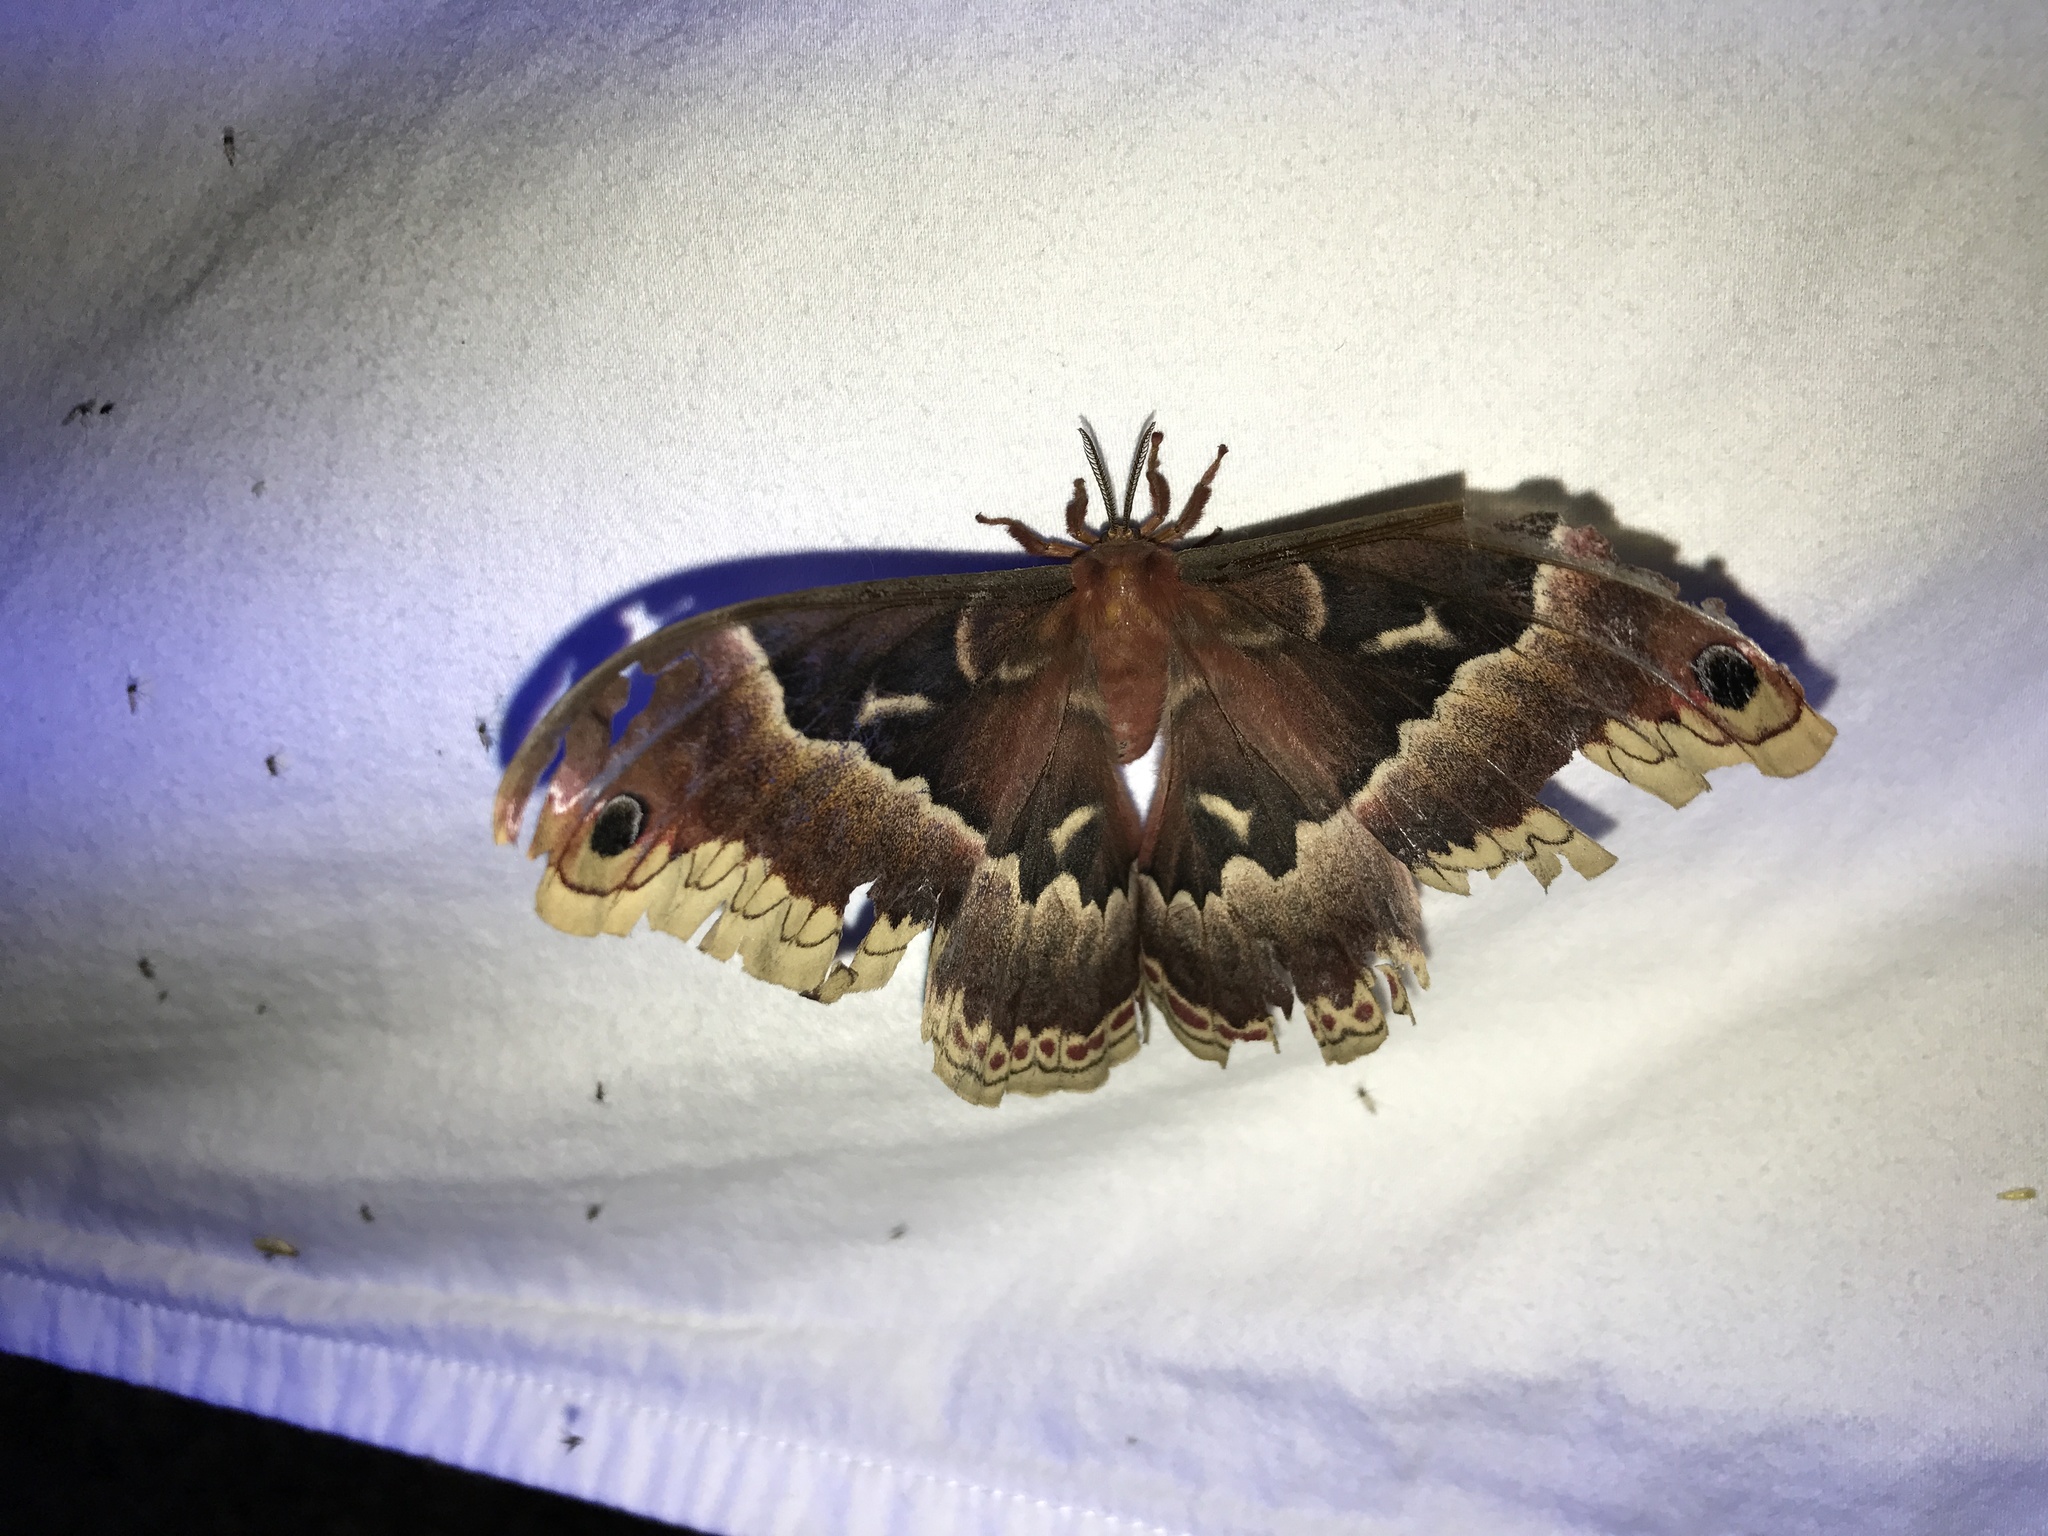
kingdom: Animalia
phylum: Arthropoda
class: Insecta
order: Lepidoptera
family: Saturniidae
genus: Callosamia
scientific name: Callosamia angulifera
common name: Tulip tree silkmoth
